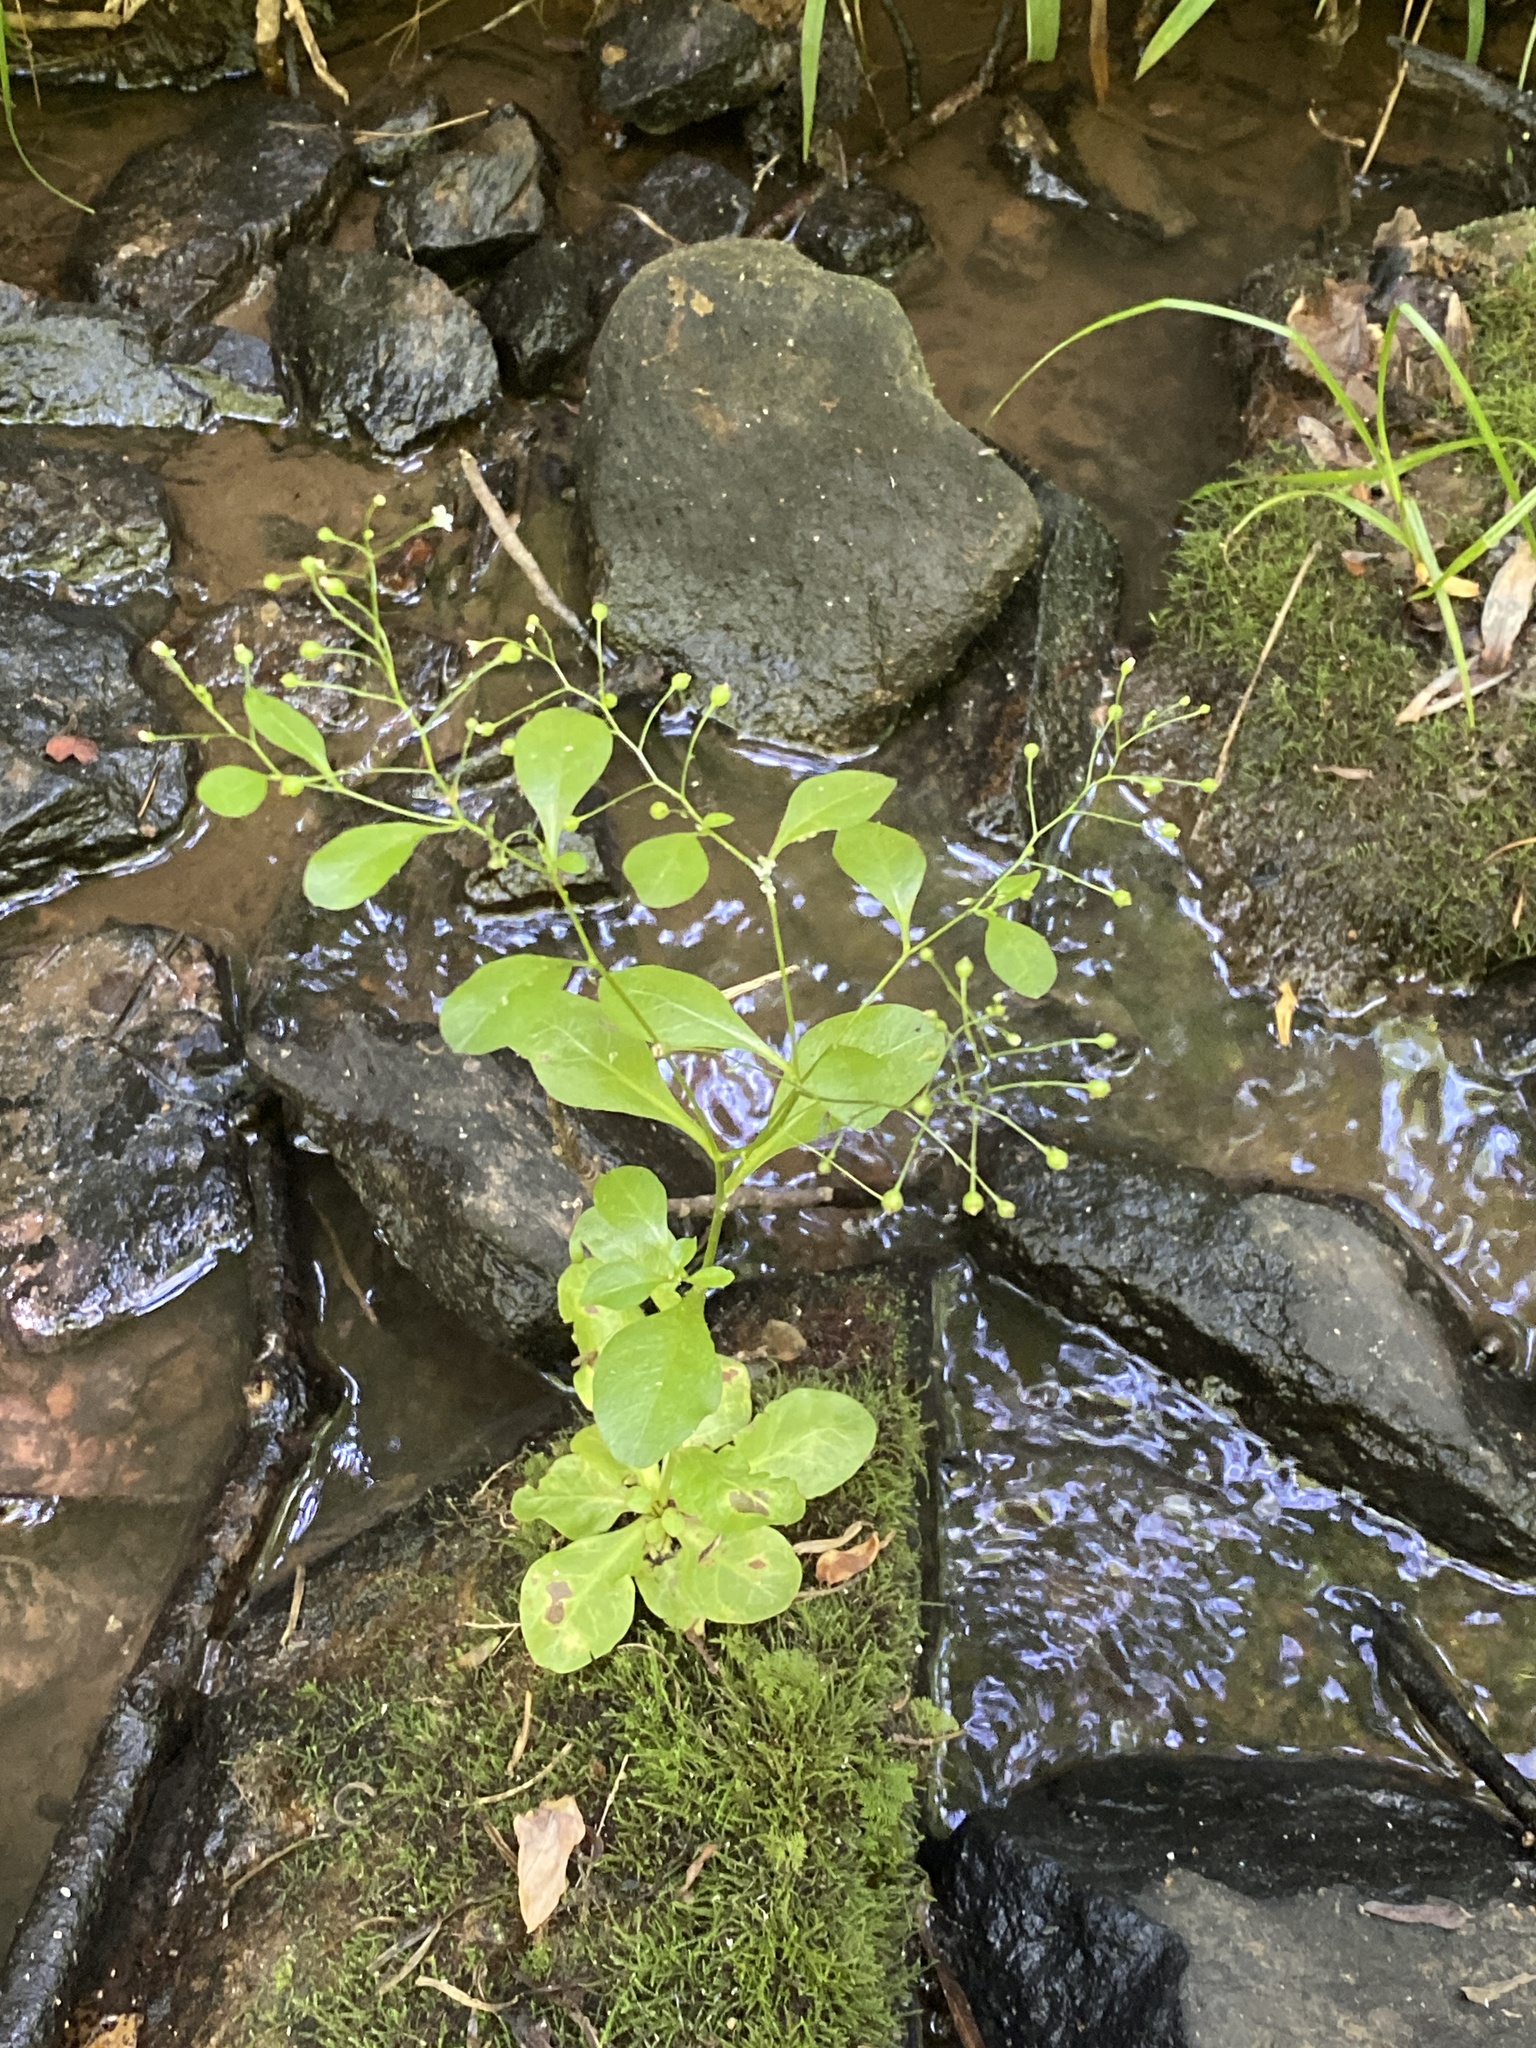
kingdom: Plantae
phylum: Tracheophyta
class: Magnoliopsida
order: Ericales
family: Primulaceae
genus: Samolus
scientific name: Samolus parviflorus
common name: False water pimpernel
